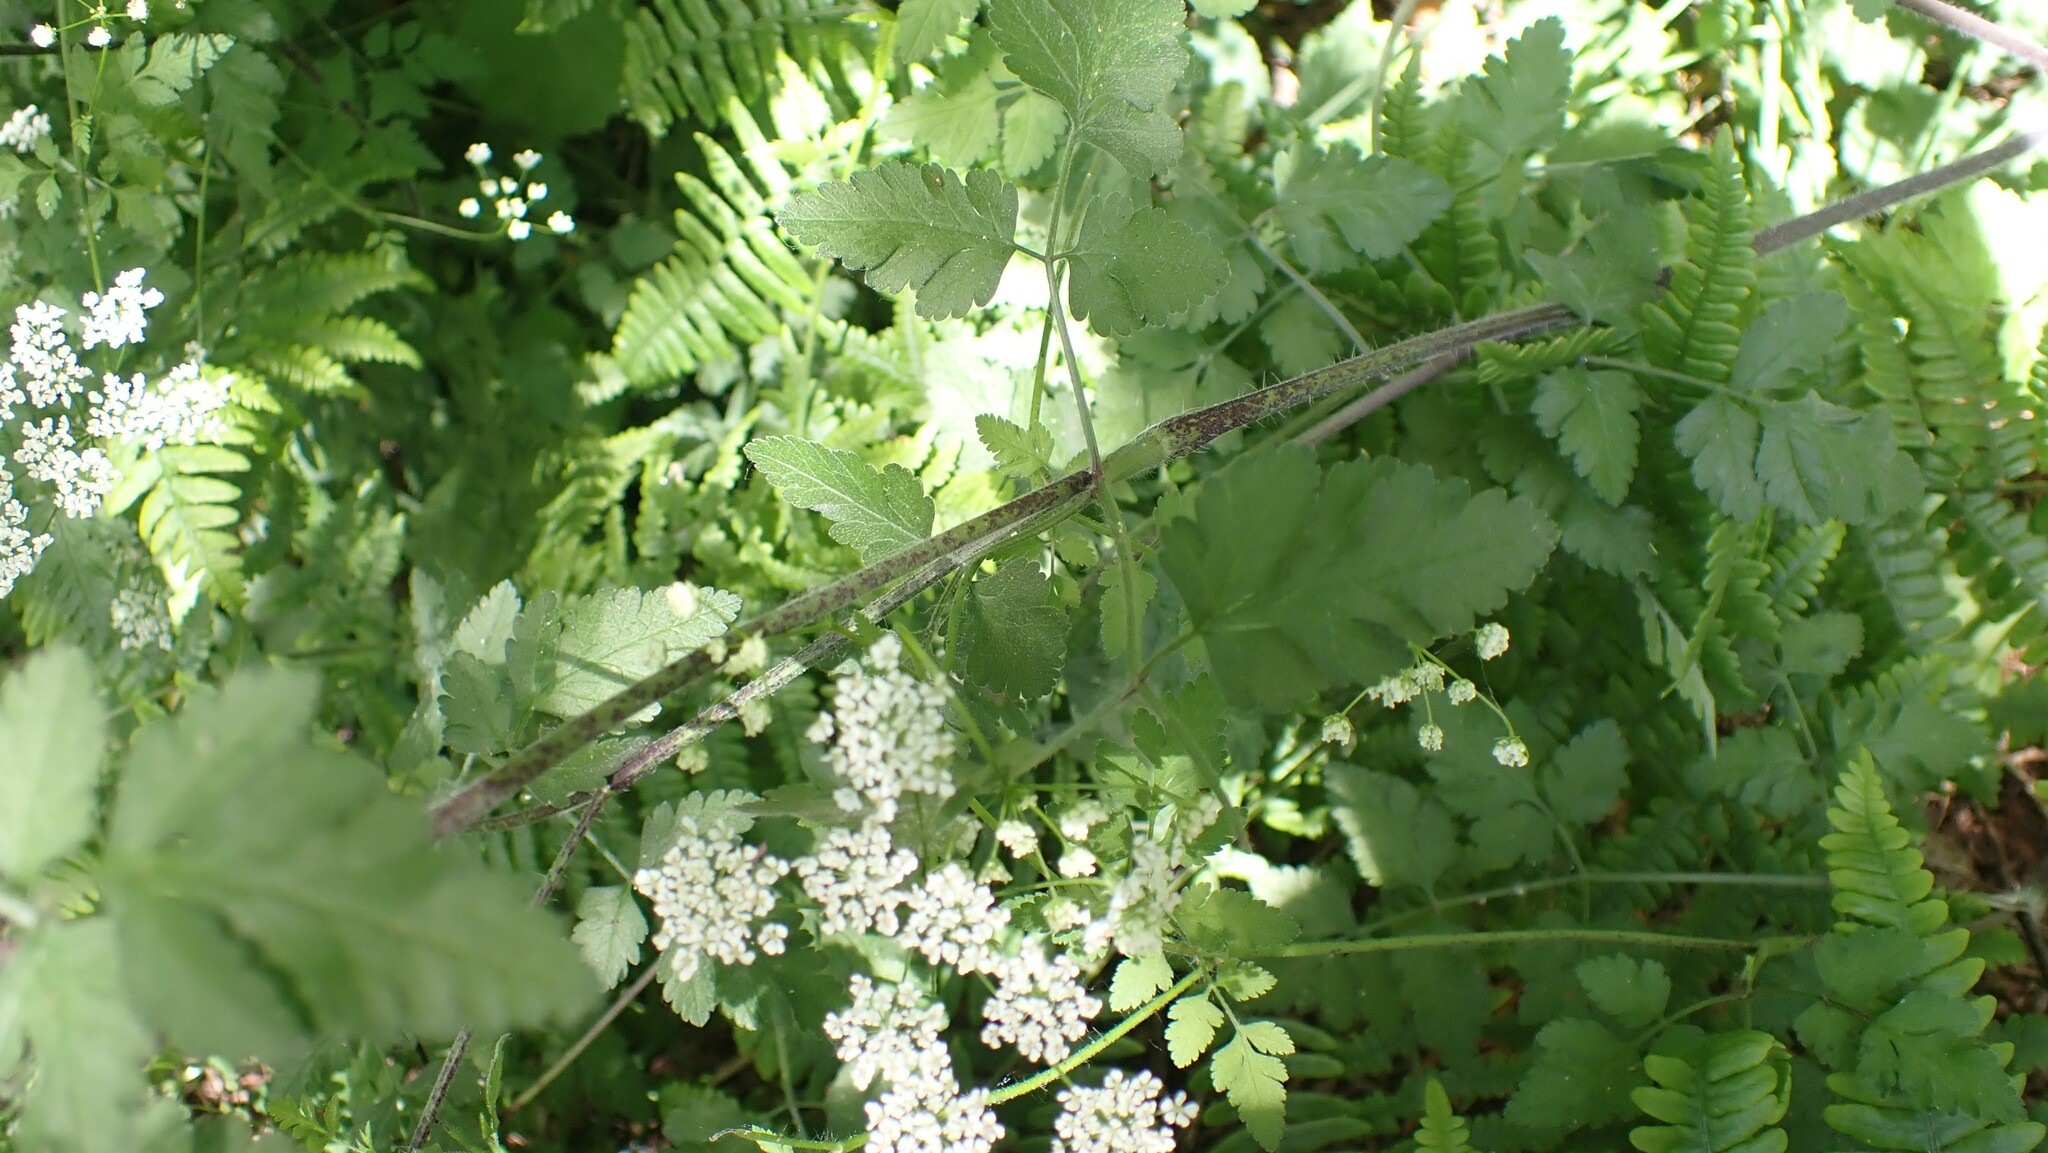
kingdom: Plantae
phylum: Tracheophyta
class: Magnoliopsida
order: Apiales
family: Apiaceae
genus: Chaerophyllum
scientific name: Chaerophyllum temulum
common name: Rough chervil
